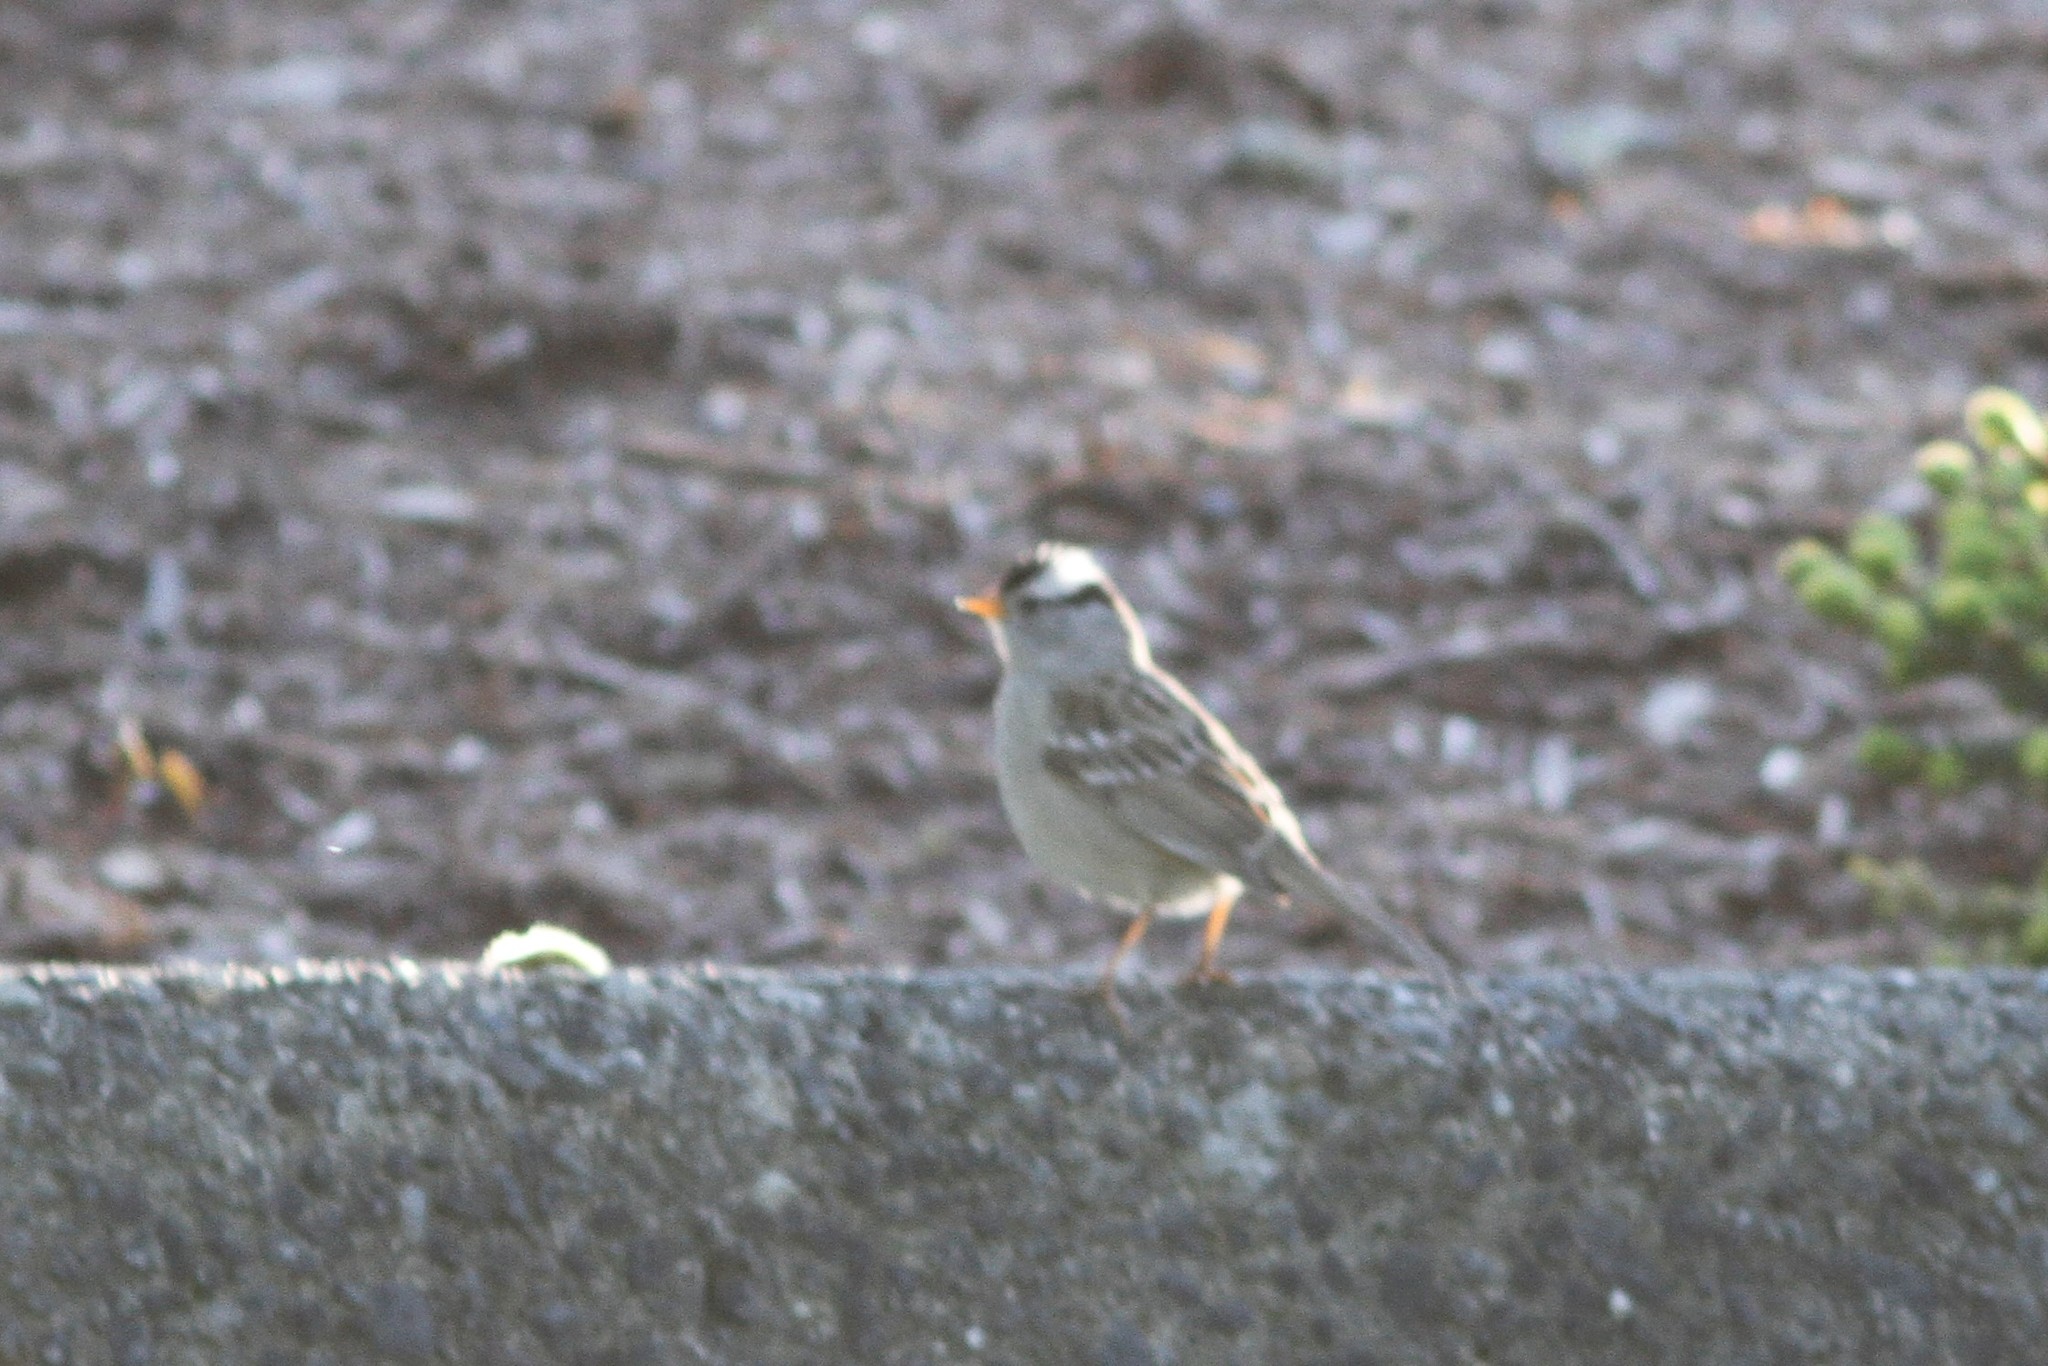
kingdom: Animalia
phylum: Chordata
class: Aves
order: Passeriformes
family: Passerellidae
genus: Zonotrichia
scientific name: Zonotrichia leucophrys
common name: White-crowned sparrow
